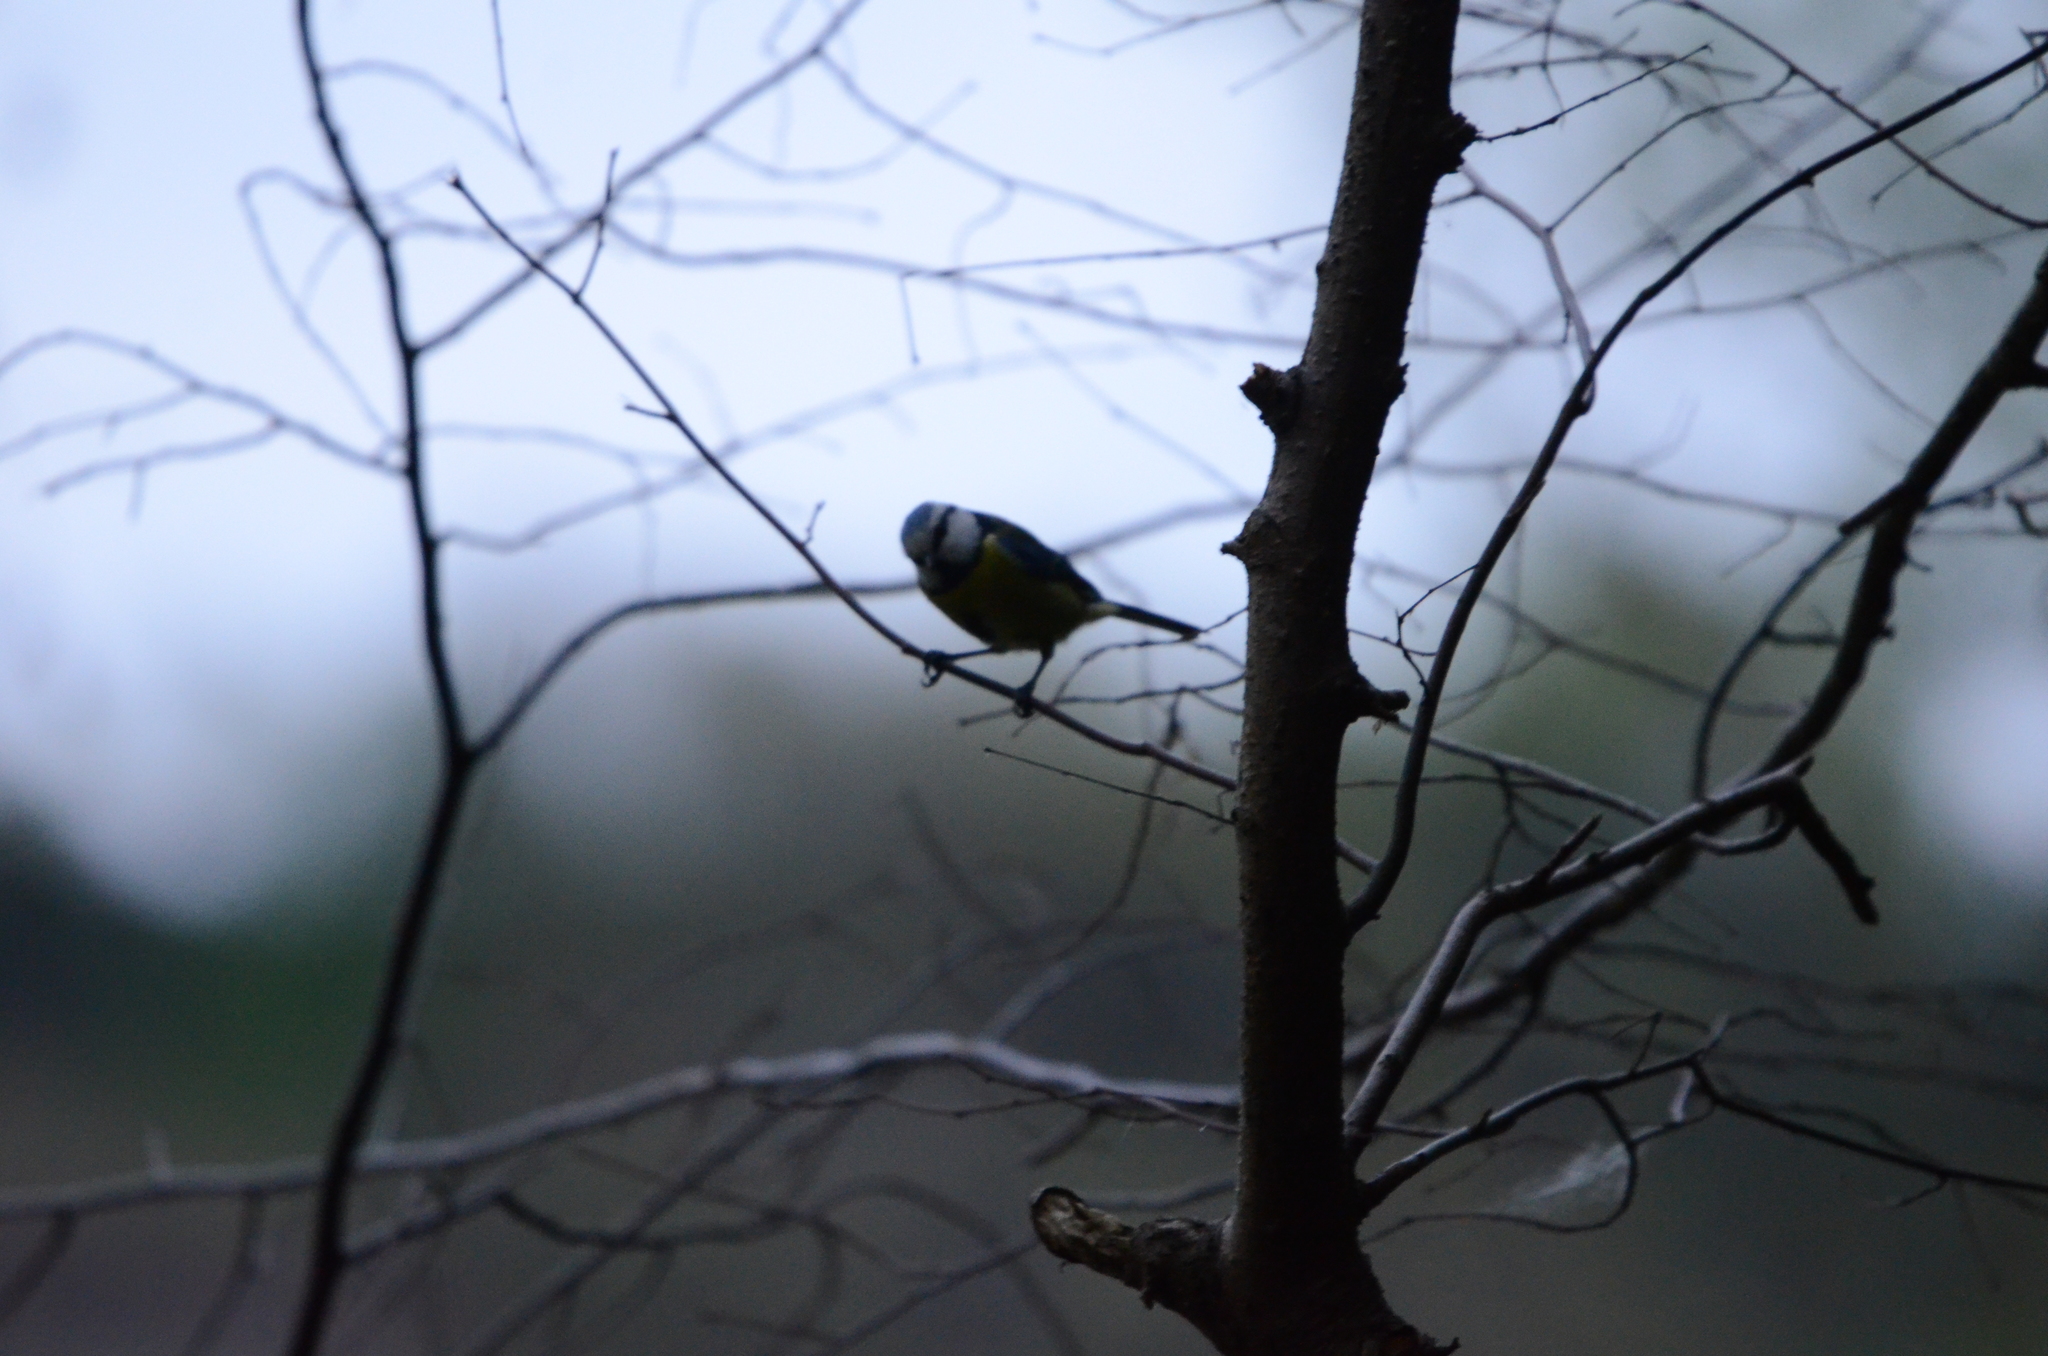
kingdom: Animalia
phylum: Chordata
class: Aves
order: Passeriformes
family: Paridae
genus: Cyanistes
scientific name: Cyanistes caeruleus
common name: Eurasian blue tit
